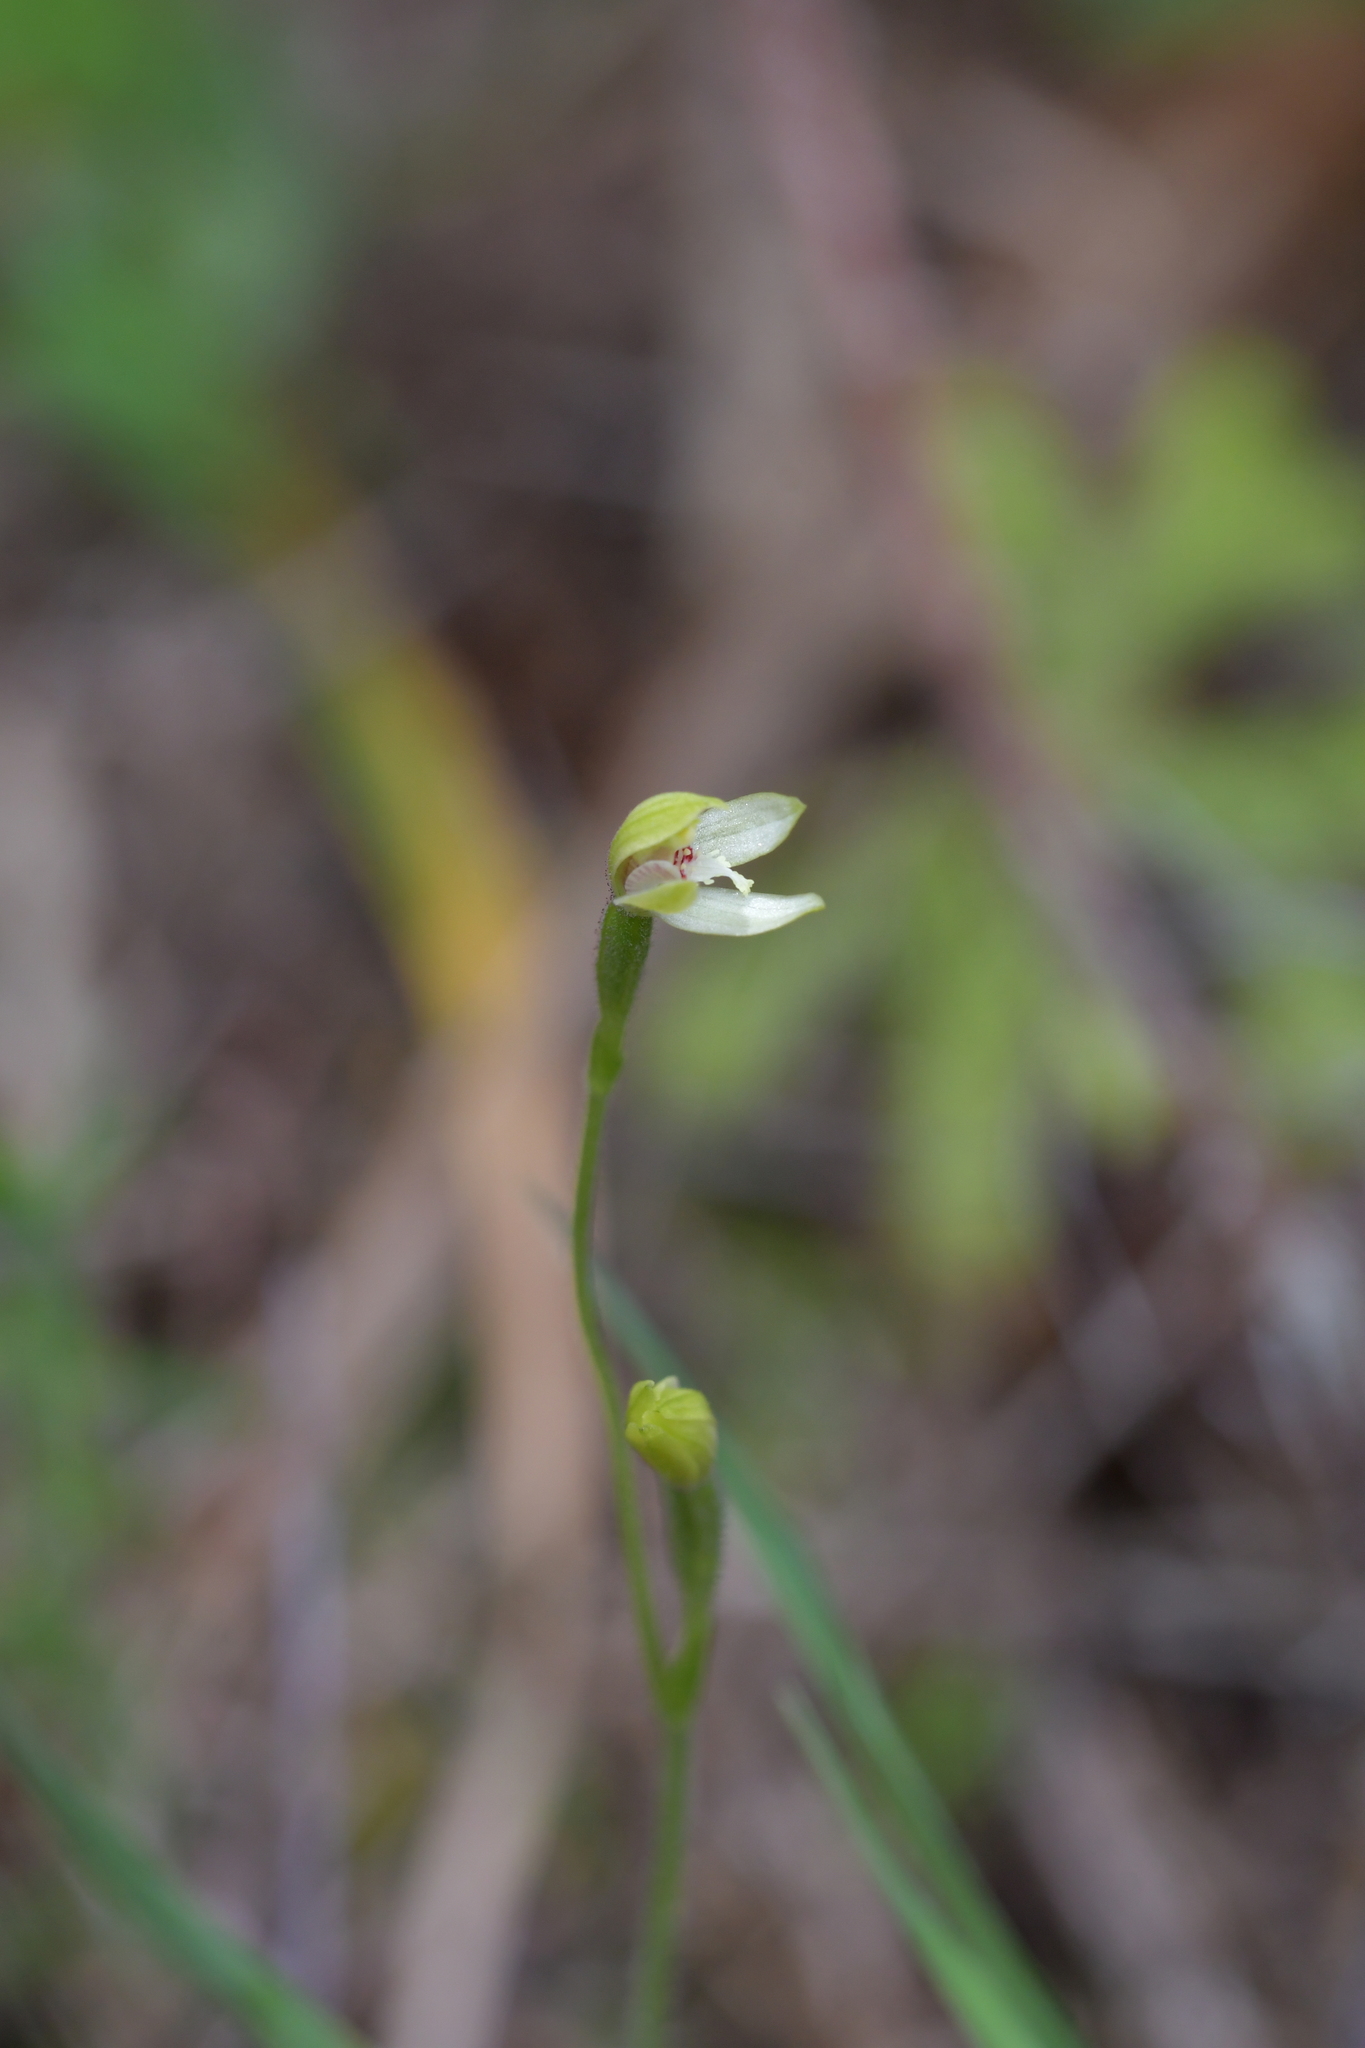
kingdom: Plantae
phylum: Tracheophyta
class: Liliopsida
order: Asparagales
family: Orchidaceae
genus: Caladenia
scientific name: Caladenia chlorostyla
